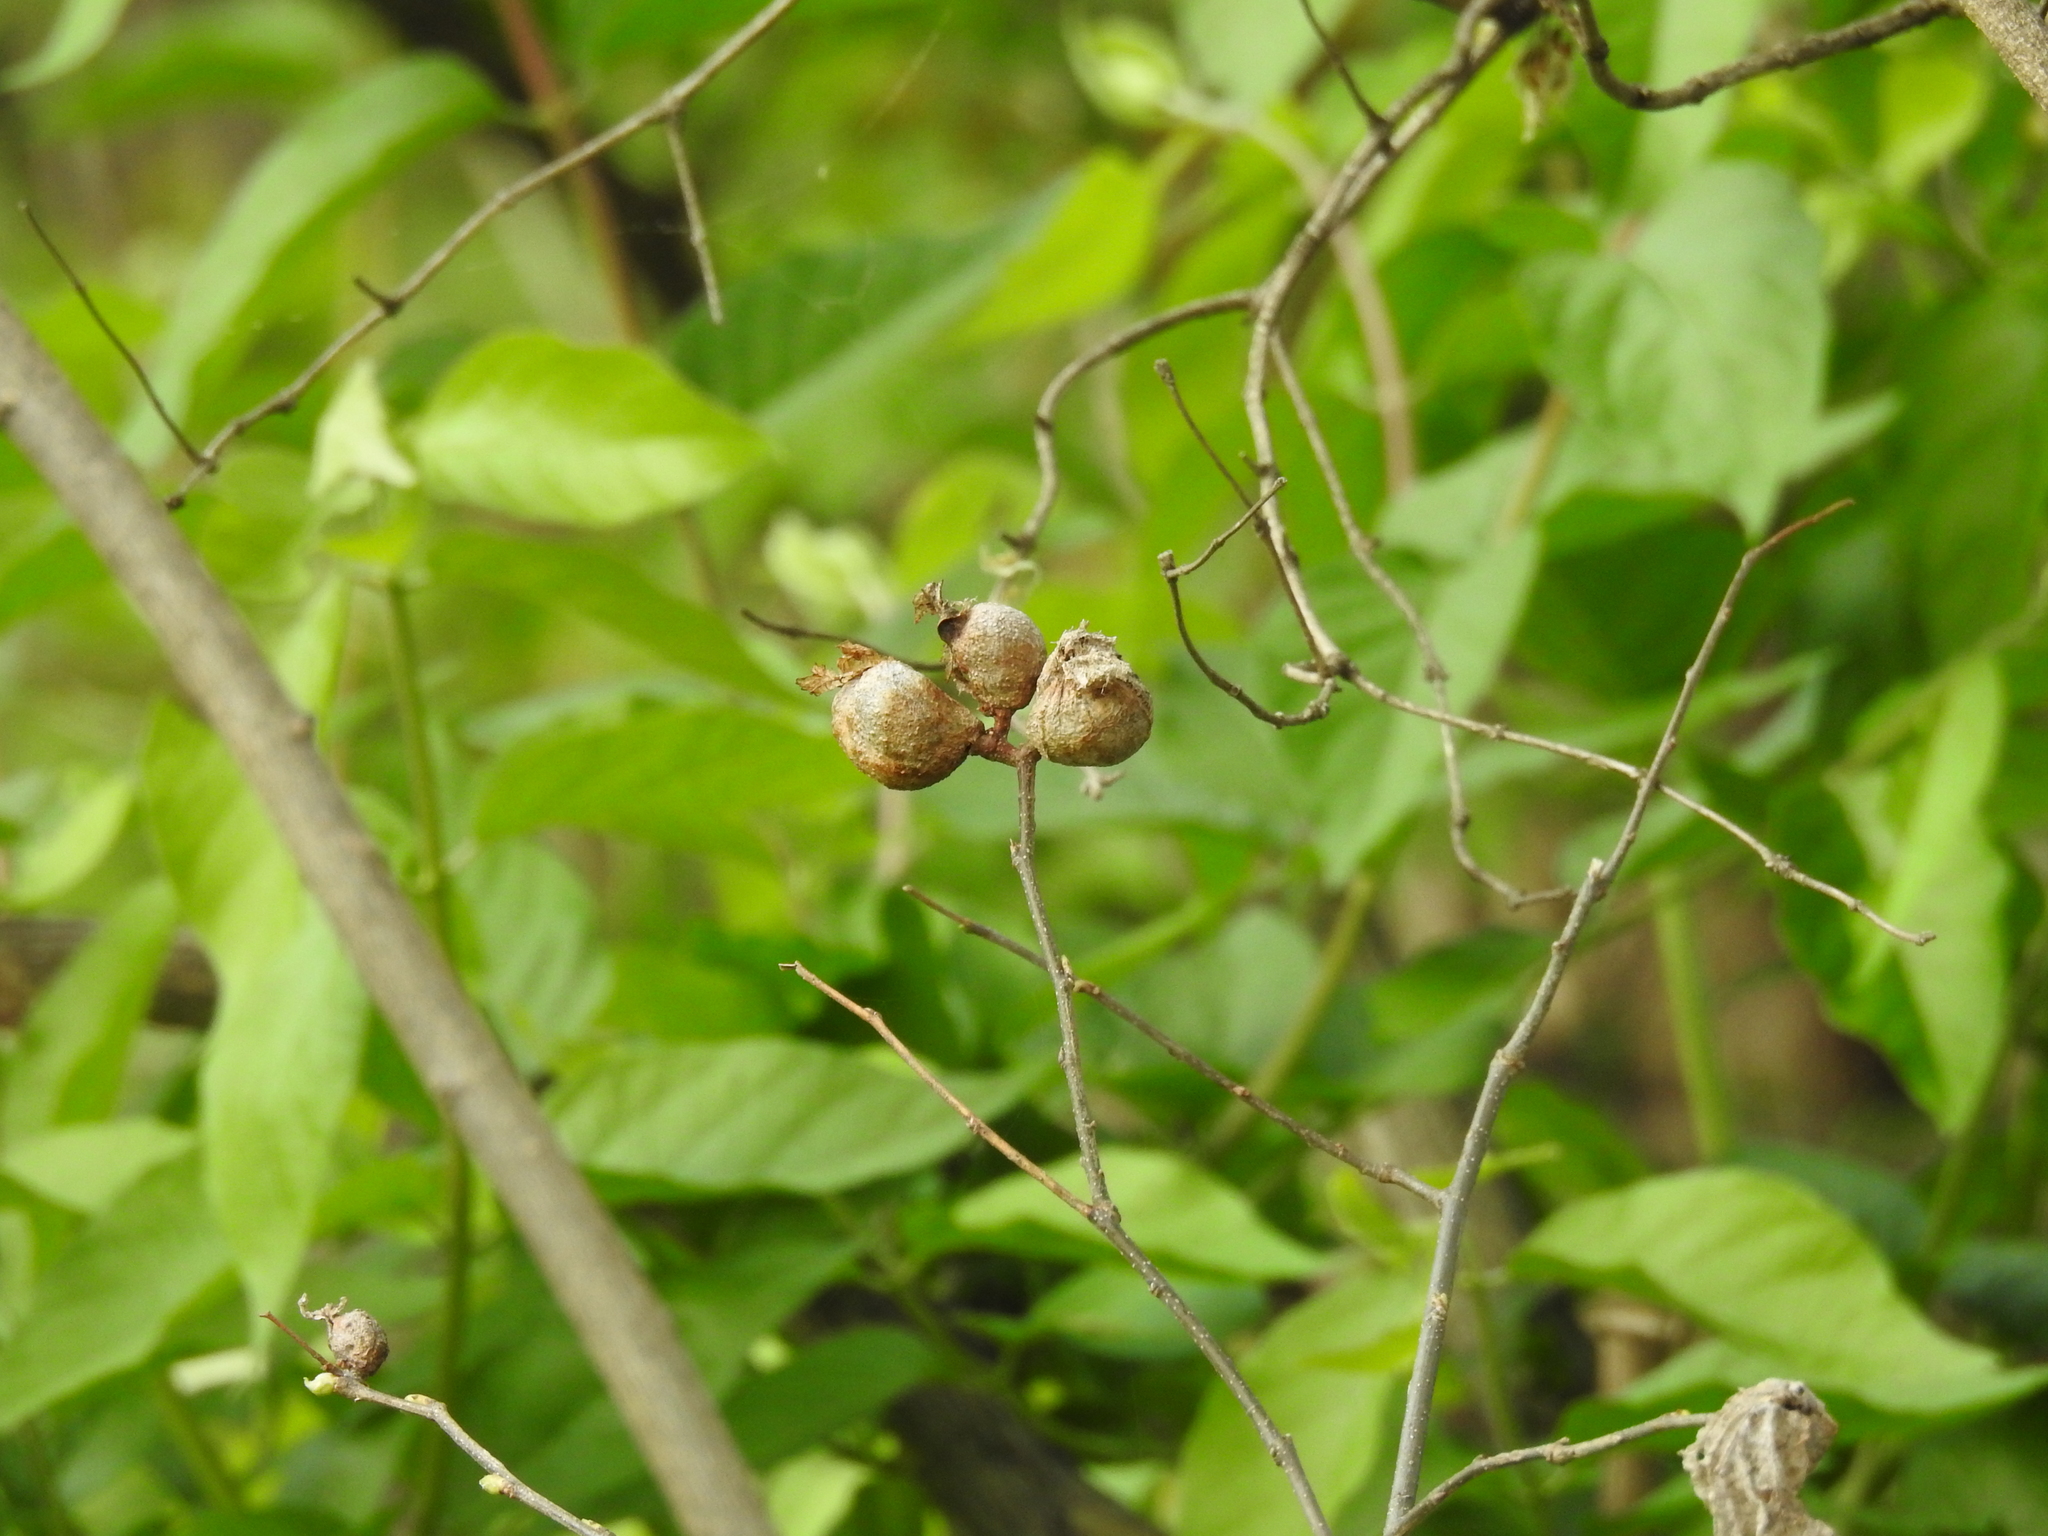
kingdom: Animalia
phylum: Arthropoda
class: Insecta
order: Hemiptera
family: Aphalaridae
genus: Pachypsylla
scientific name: Pachypsylla venusta
